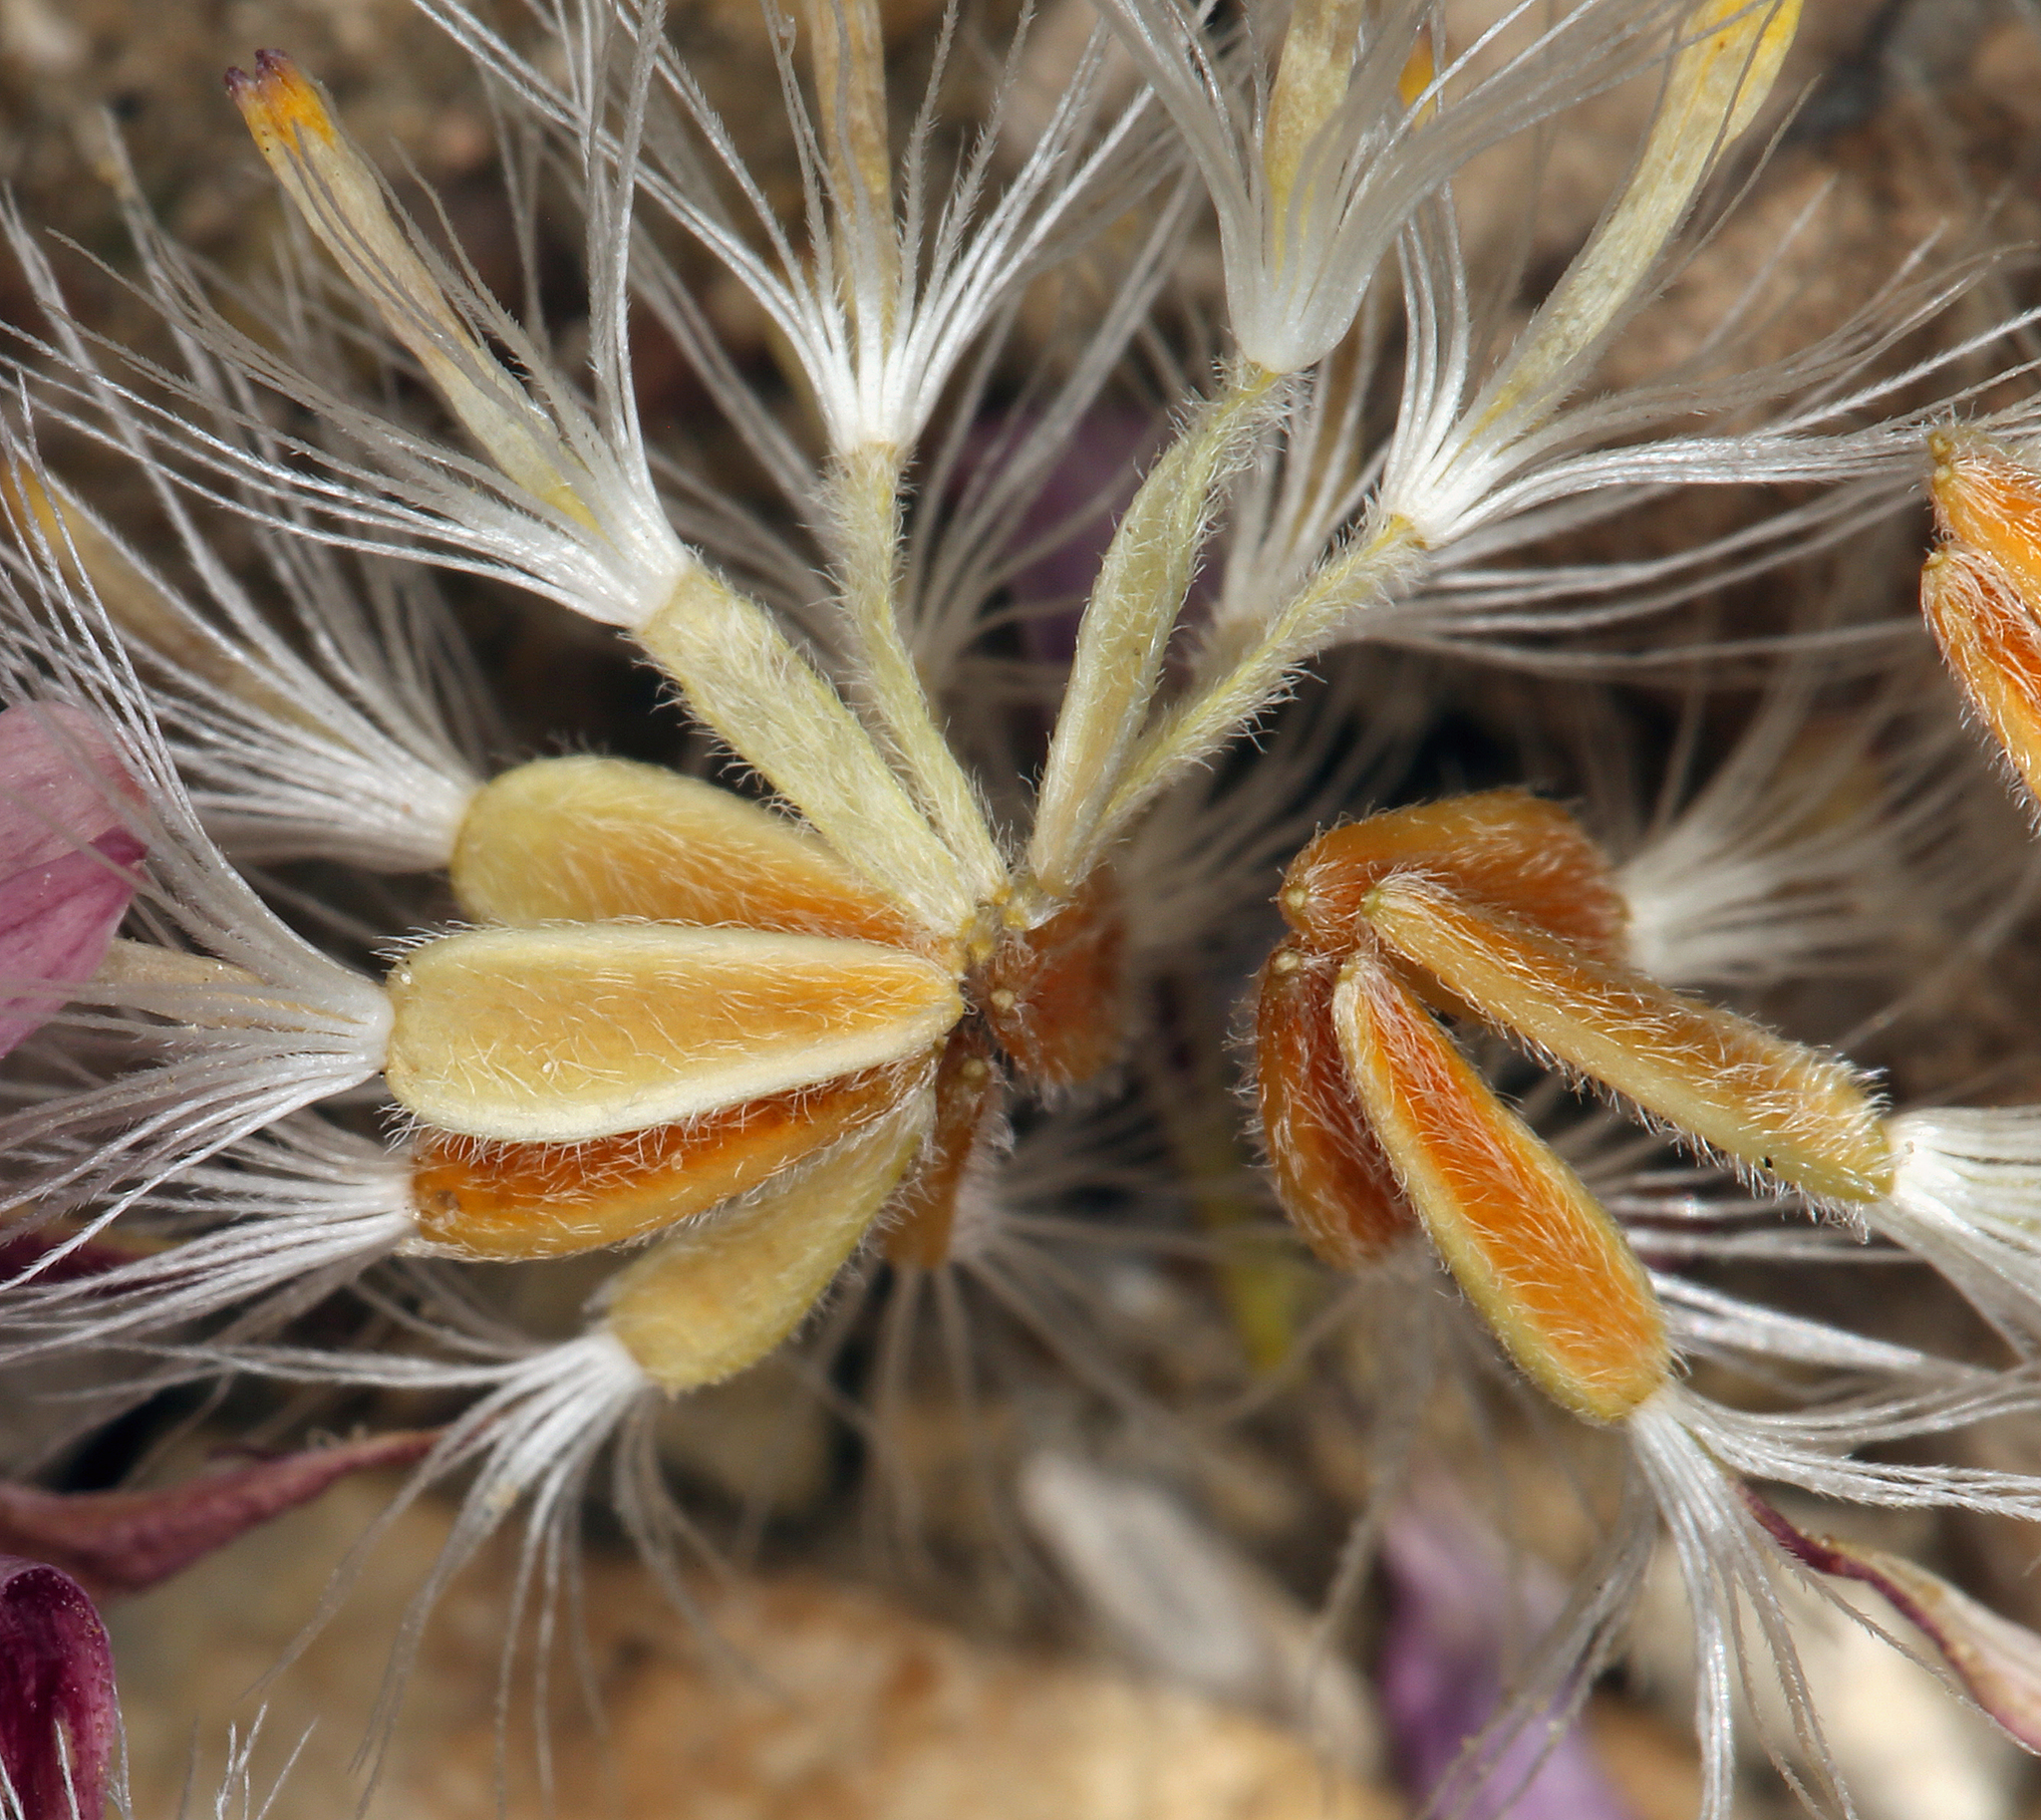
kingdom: Plantae
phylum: Tracheophyta
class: Magnoliopsida
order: Asterales
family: Asteraceae
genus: Townsendia
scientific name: Townsendia scapigera
